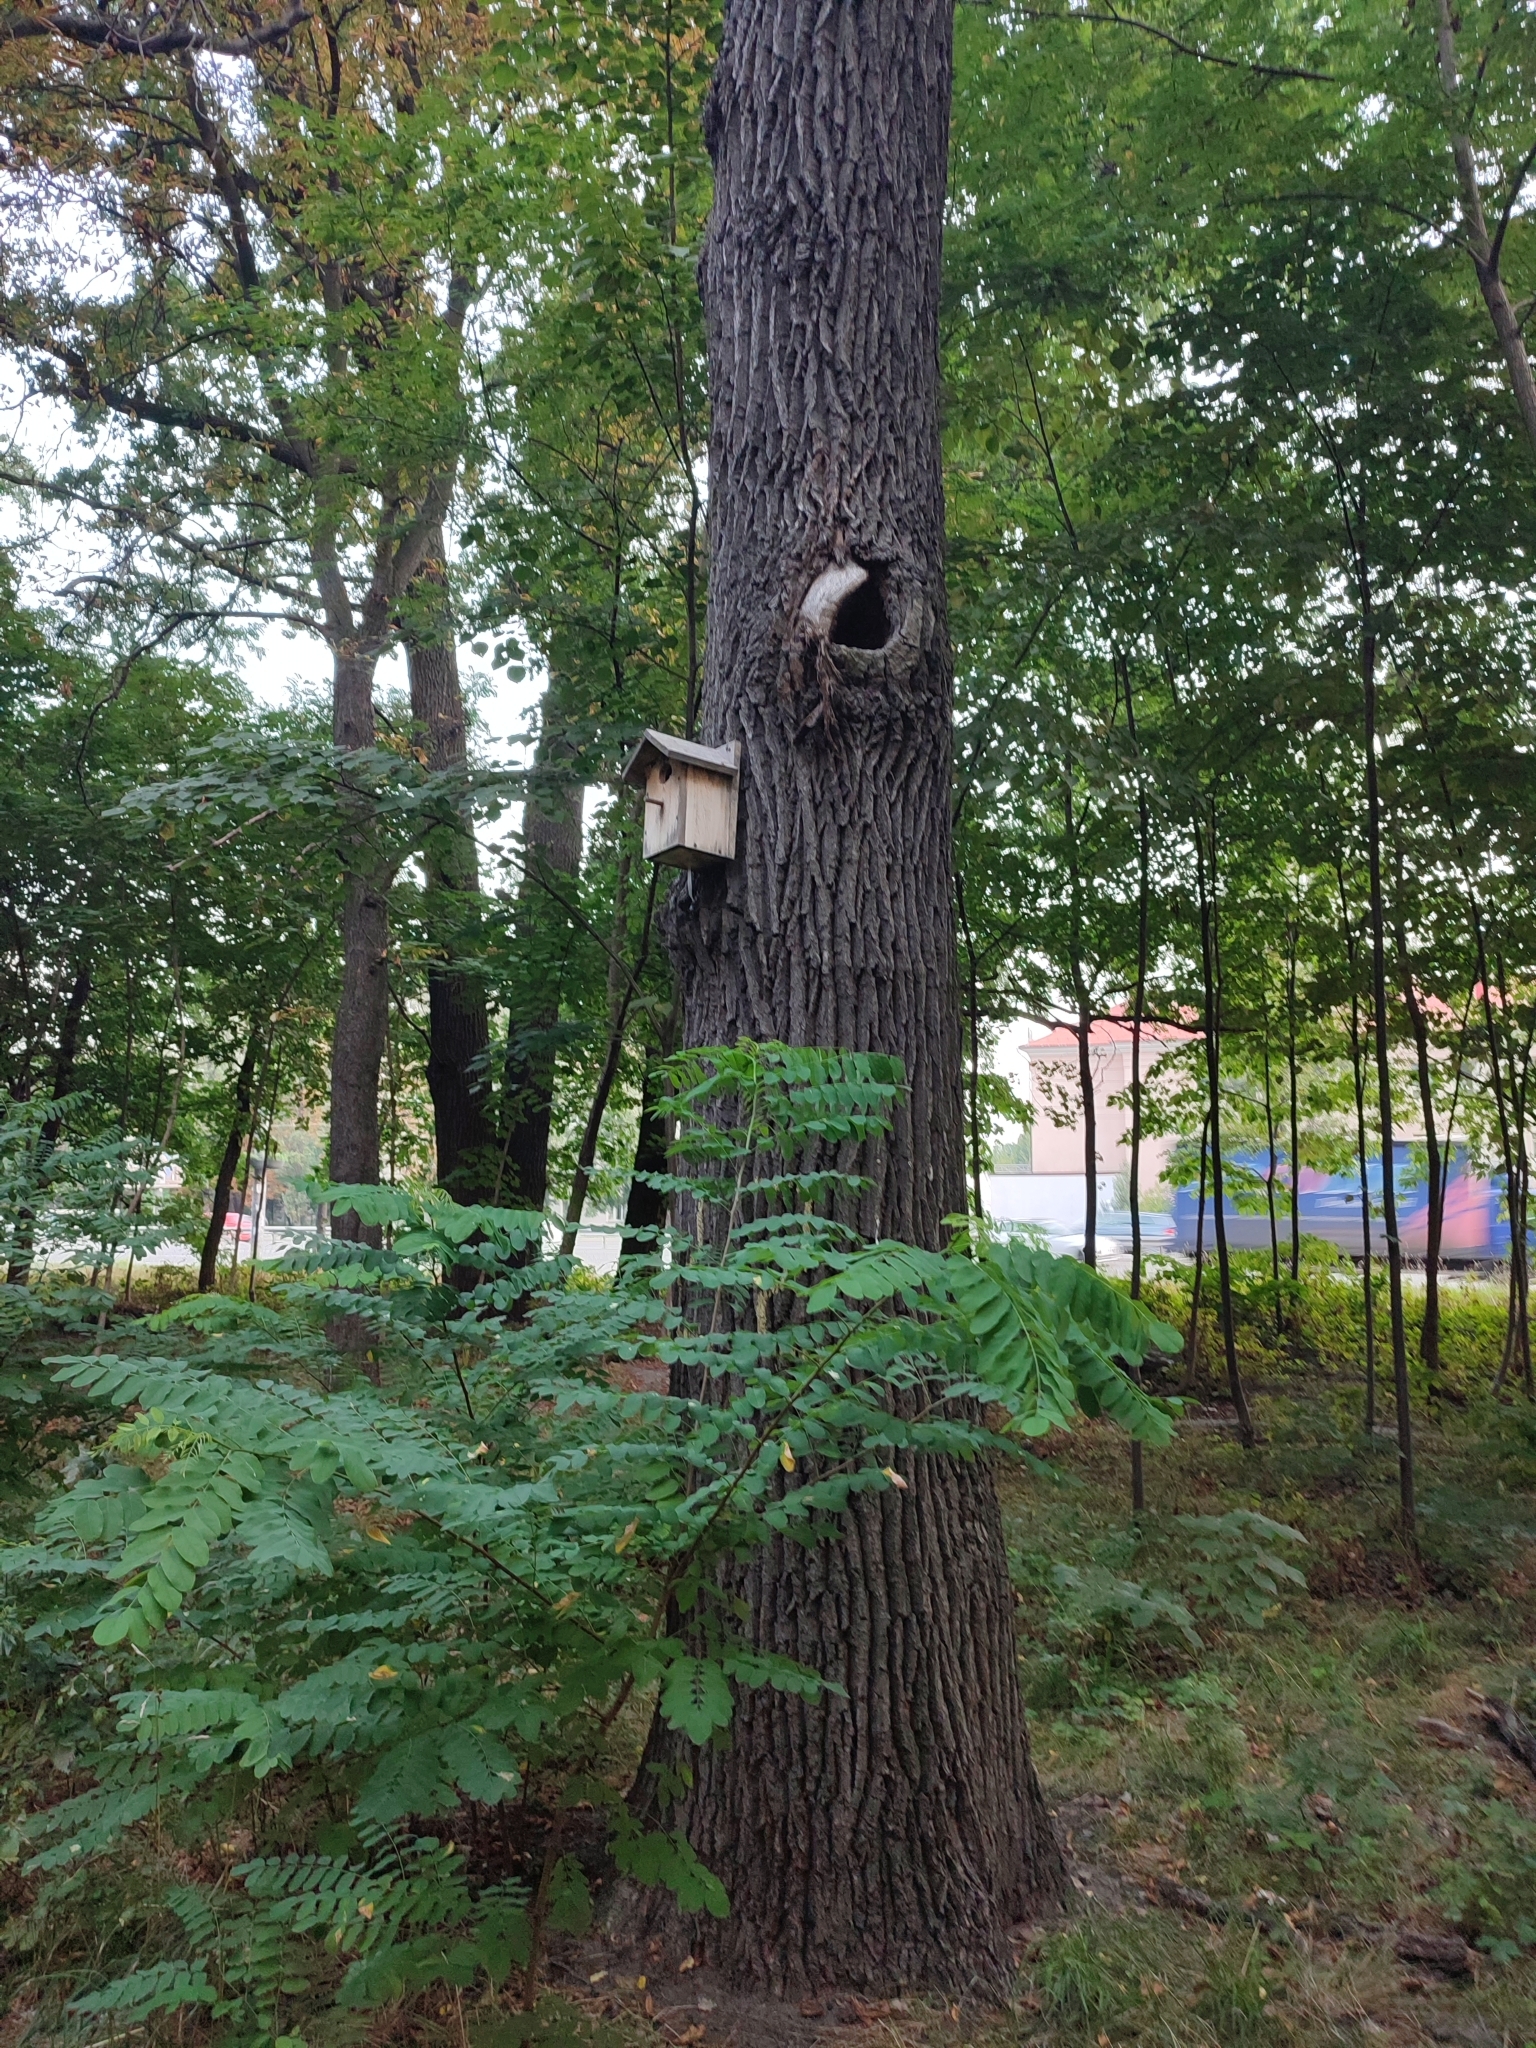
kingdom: Plantae
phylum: Tracheophyta
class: Magnoliopsida
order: Fagales
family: Fagaceae
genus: Quercus
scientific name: Quercus robur
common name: Pedunculate oak
